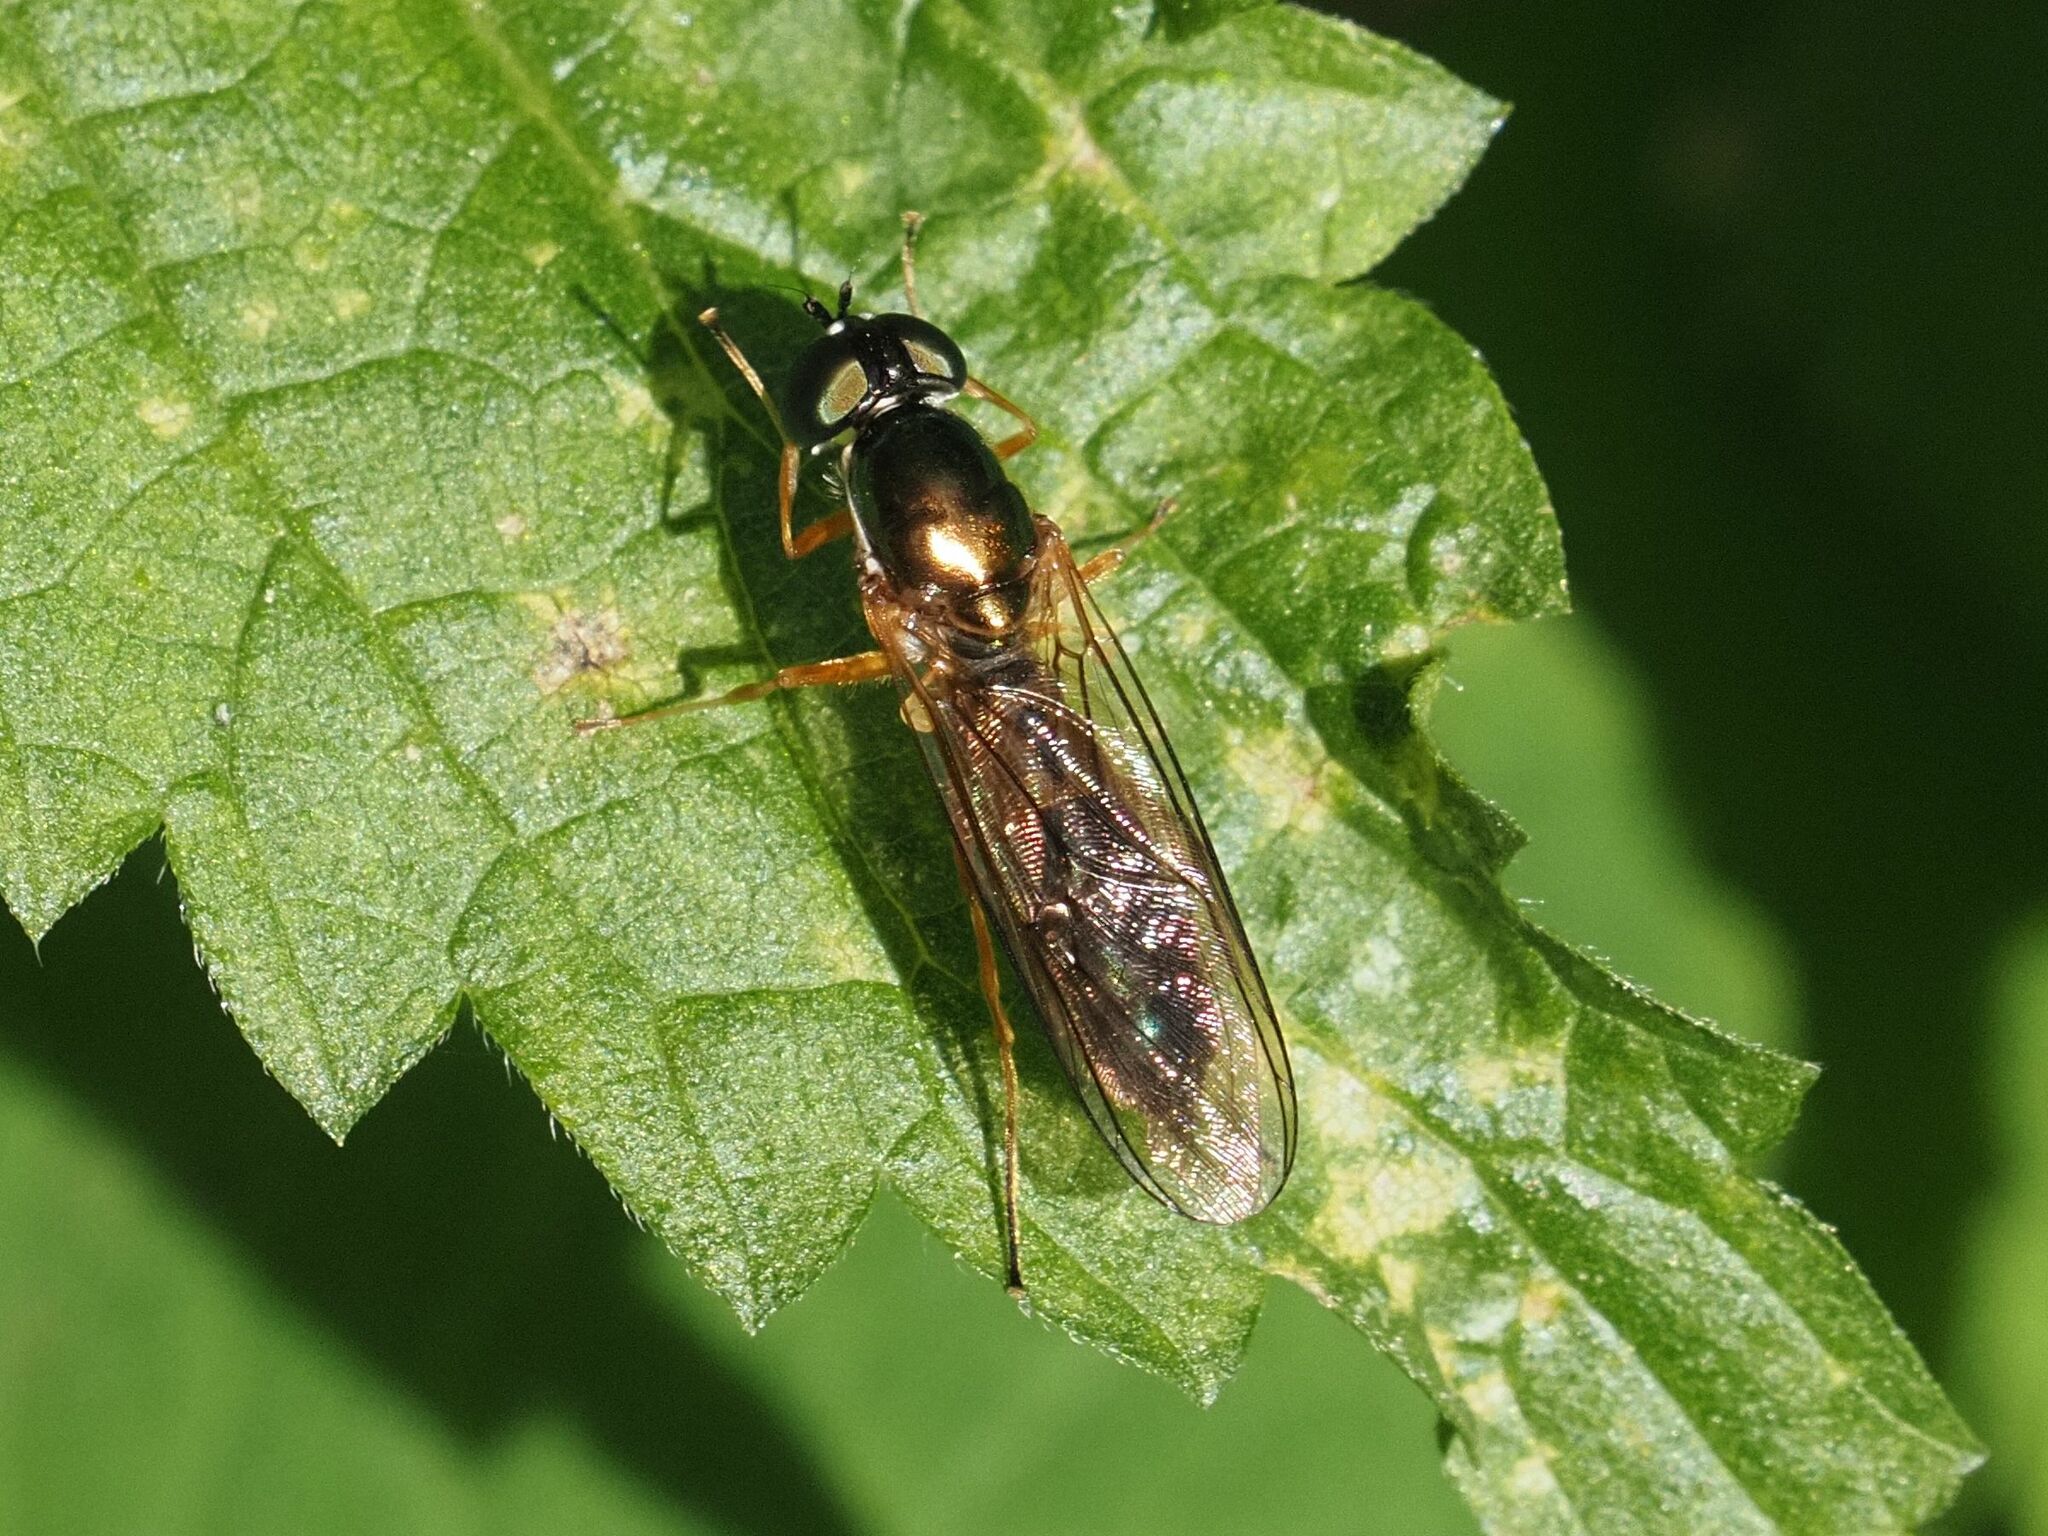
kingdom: Animalia
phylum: Arthropoda
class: Insecta
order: Diptera
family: Stratiomyidae
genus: Sargus
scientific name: Sargus bipunctatus
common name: Twin-spot centurion
